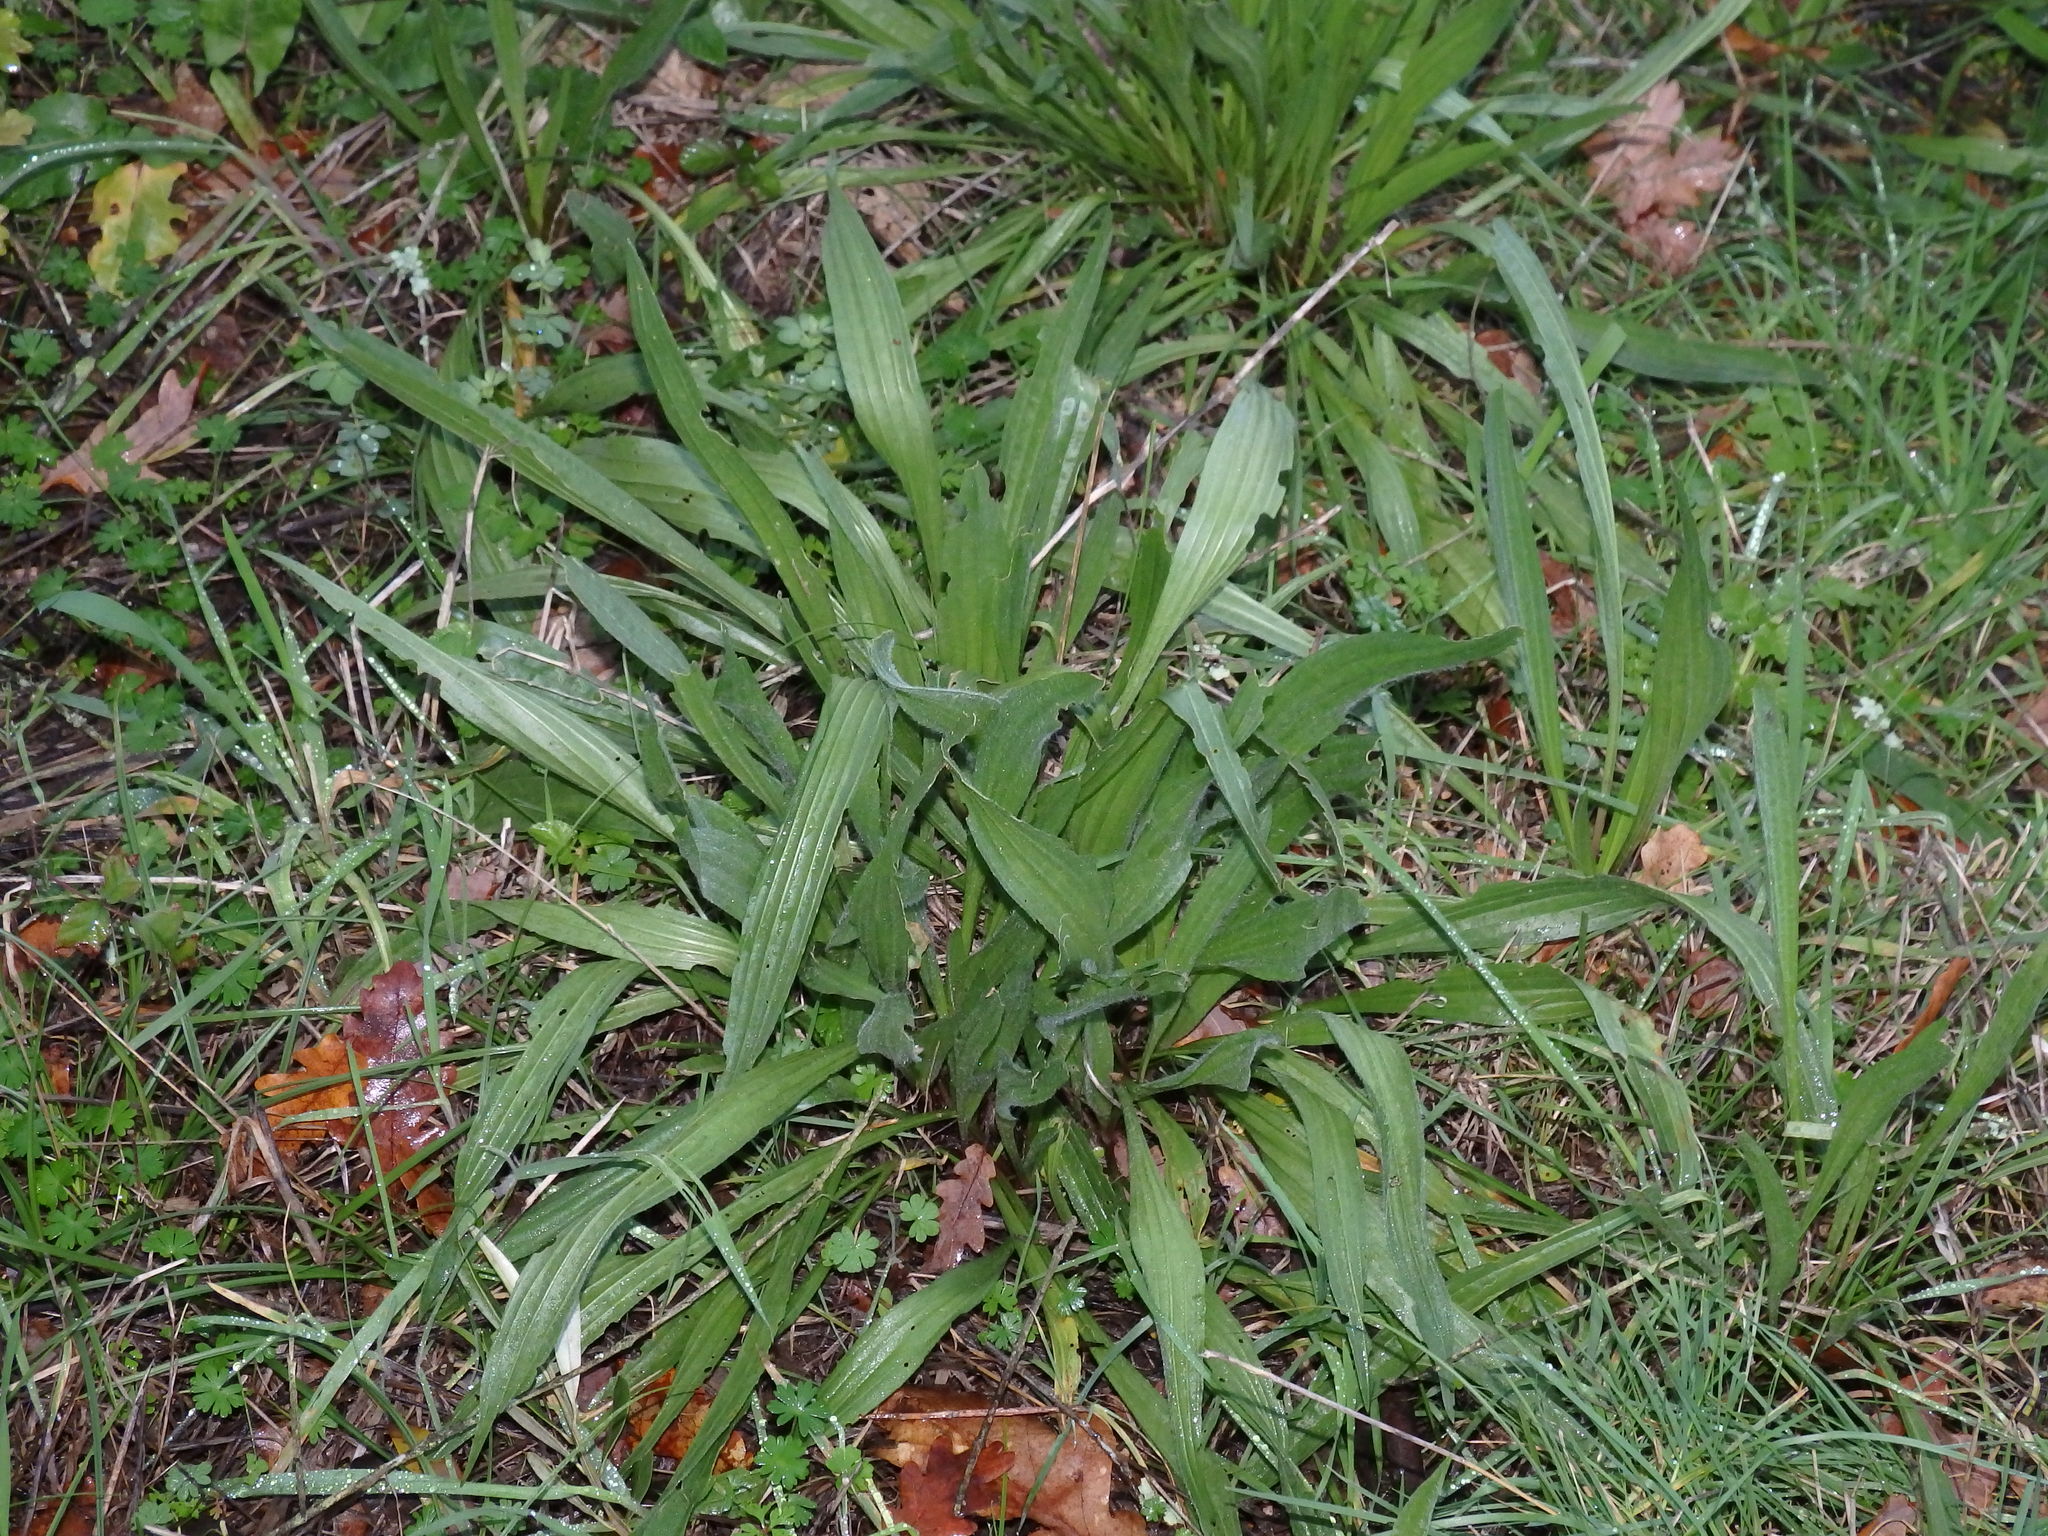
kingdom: Plantae
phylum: Tracheophyta
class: Magnoliopsida
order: Lamiales
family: Plantaginaceae
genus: Plantago
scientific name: Plantago lanceolata
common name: Ribwort plantain
